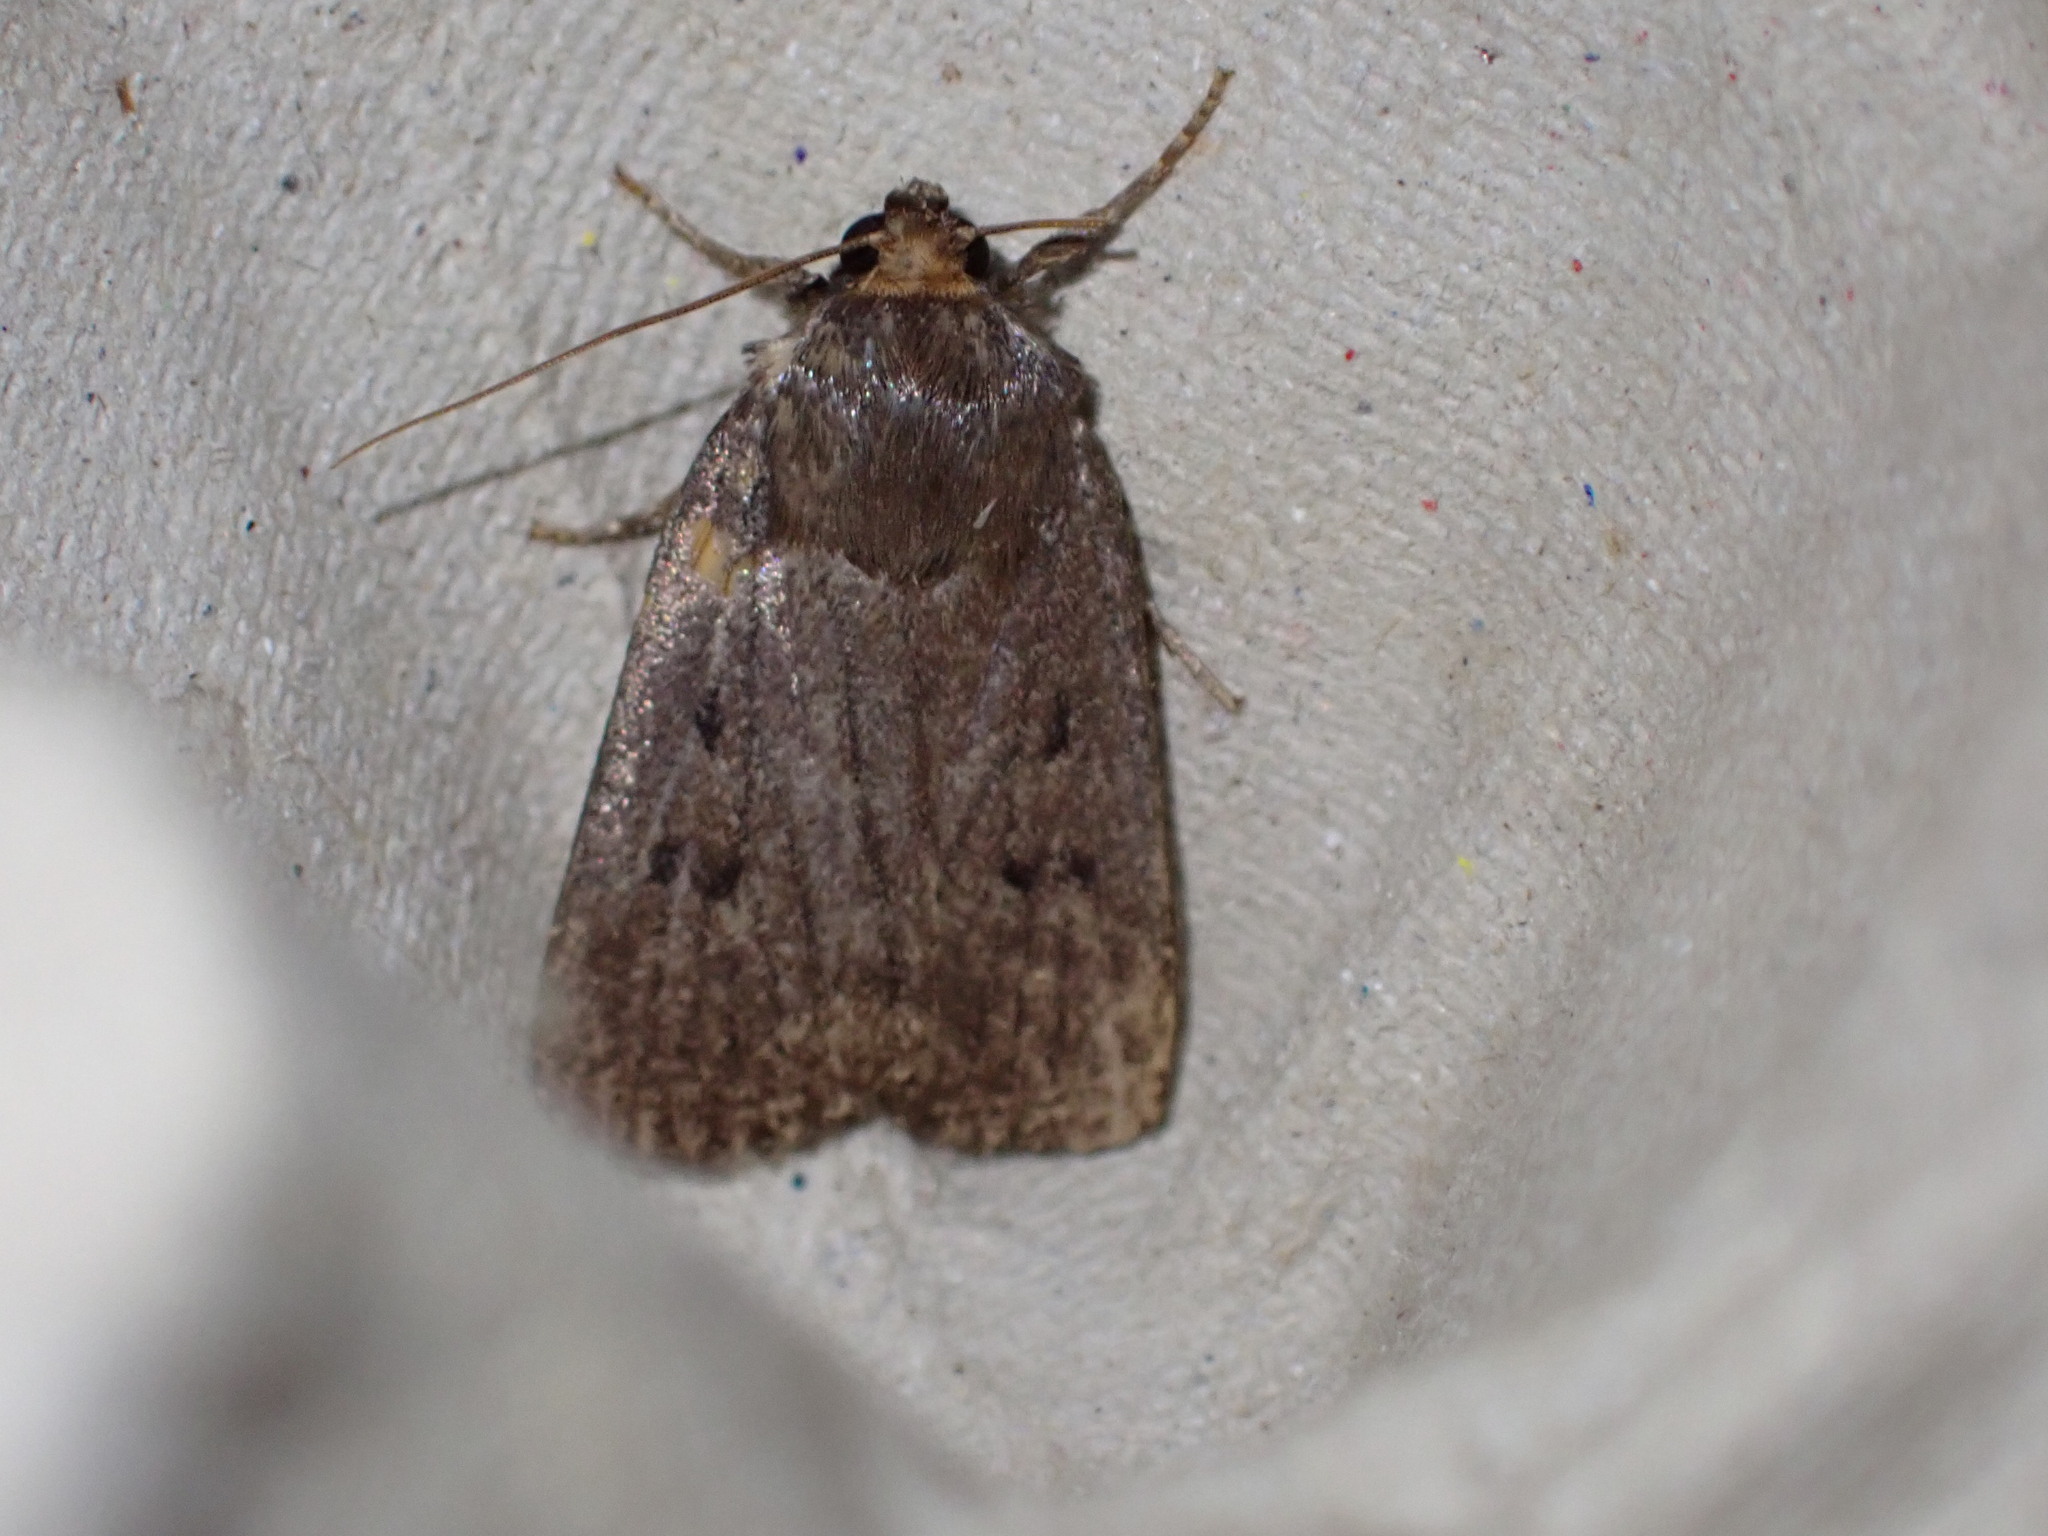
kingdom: Animalia
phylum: Arthropoda
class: Insecta
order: Lepidoptera
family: Noctuidae
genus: Amphipyra
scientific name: Amphipyra tragopoginis
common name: Mouse moth
